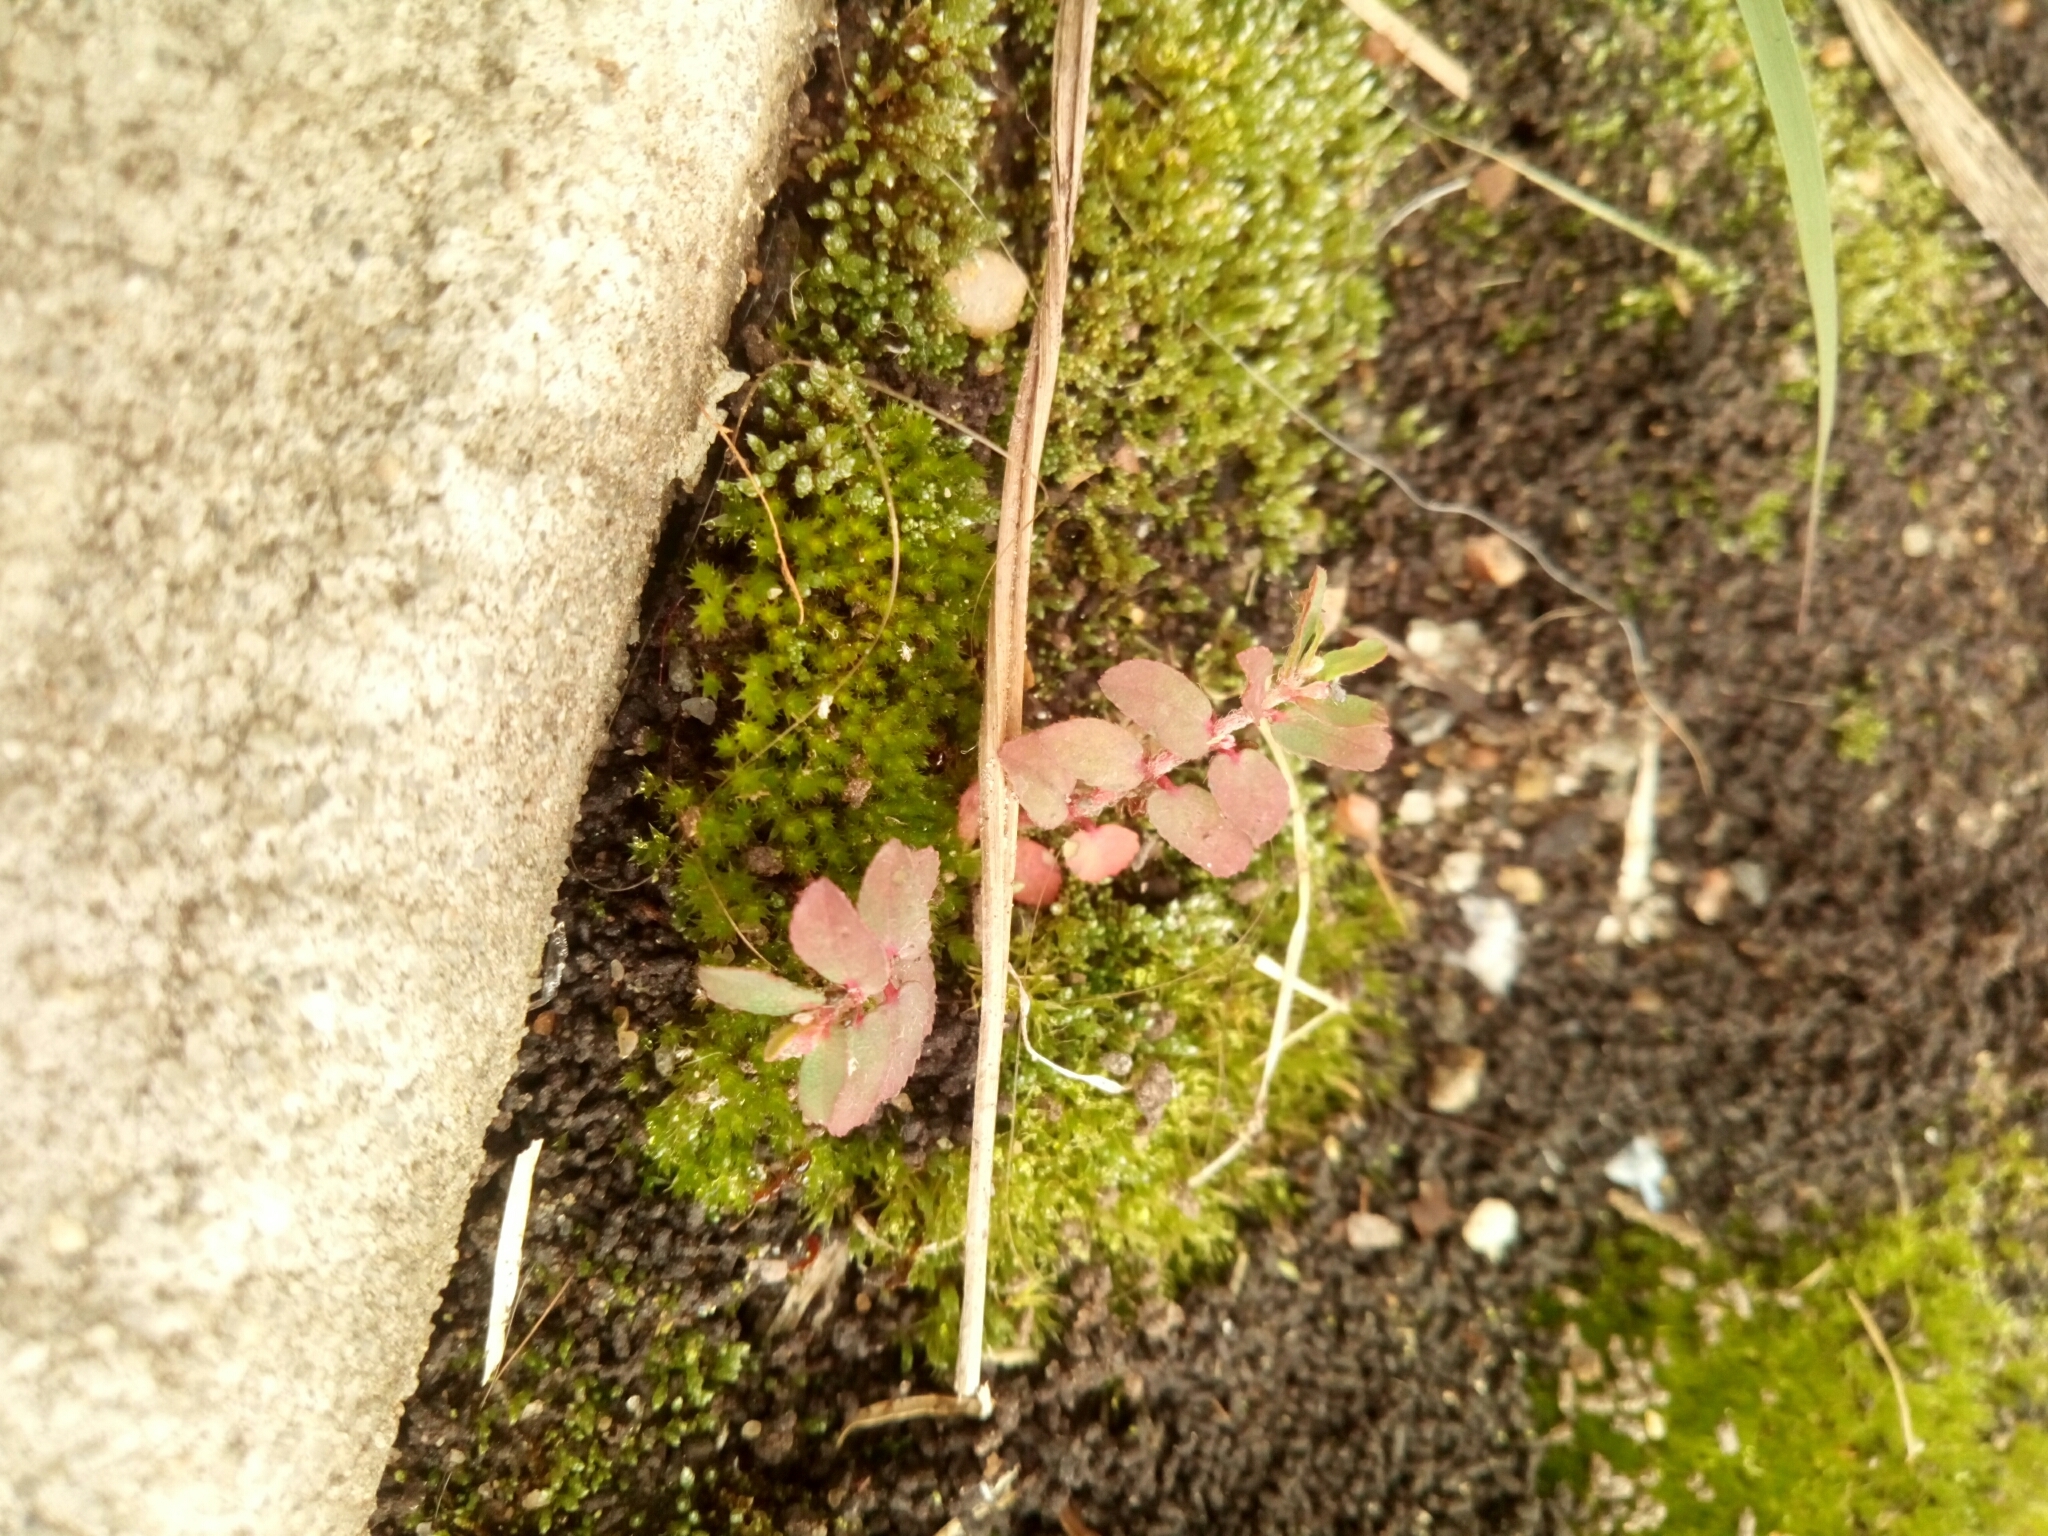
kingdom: Plantae
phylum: Tracheophyta
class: Magnoliopsida
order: Malpighiales
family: Euphorbiaceae
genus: Euphorbia
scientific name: Euphorbia maculata
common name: Spotted spurge
